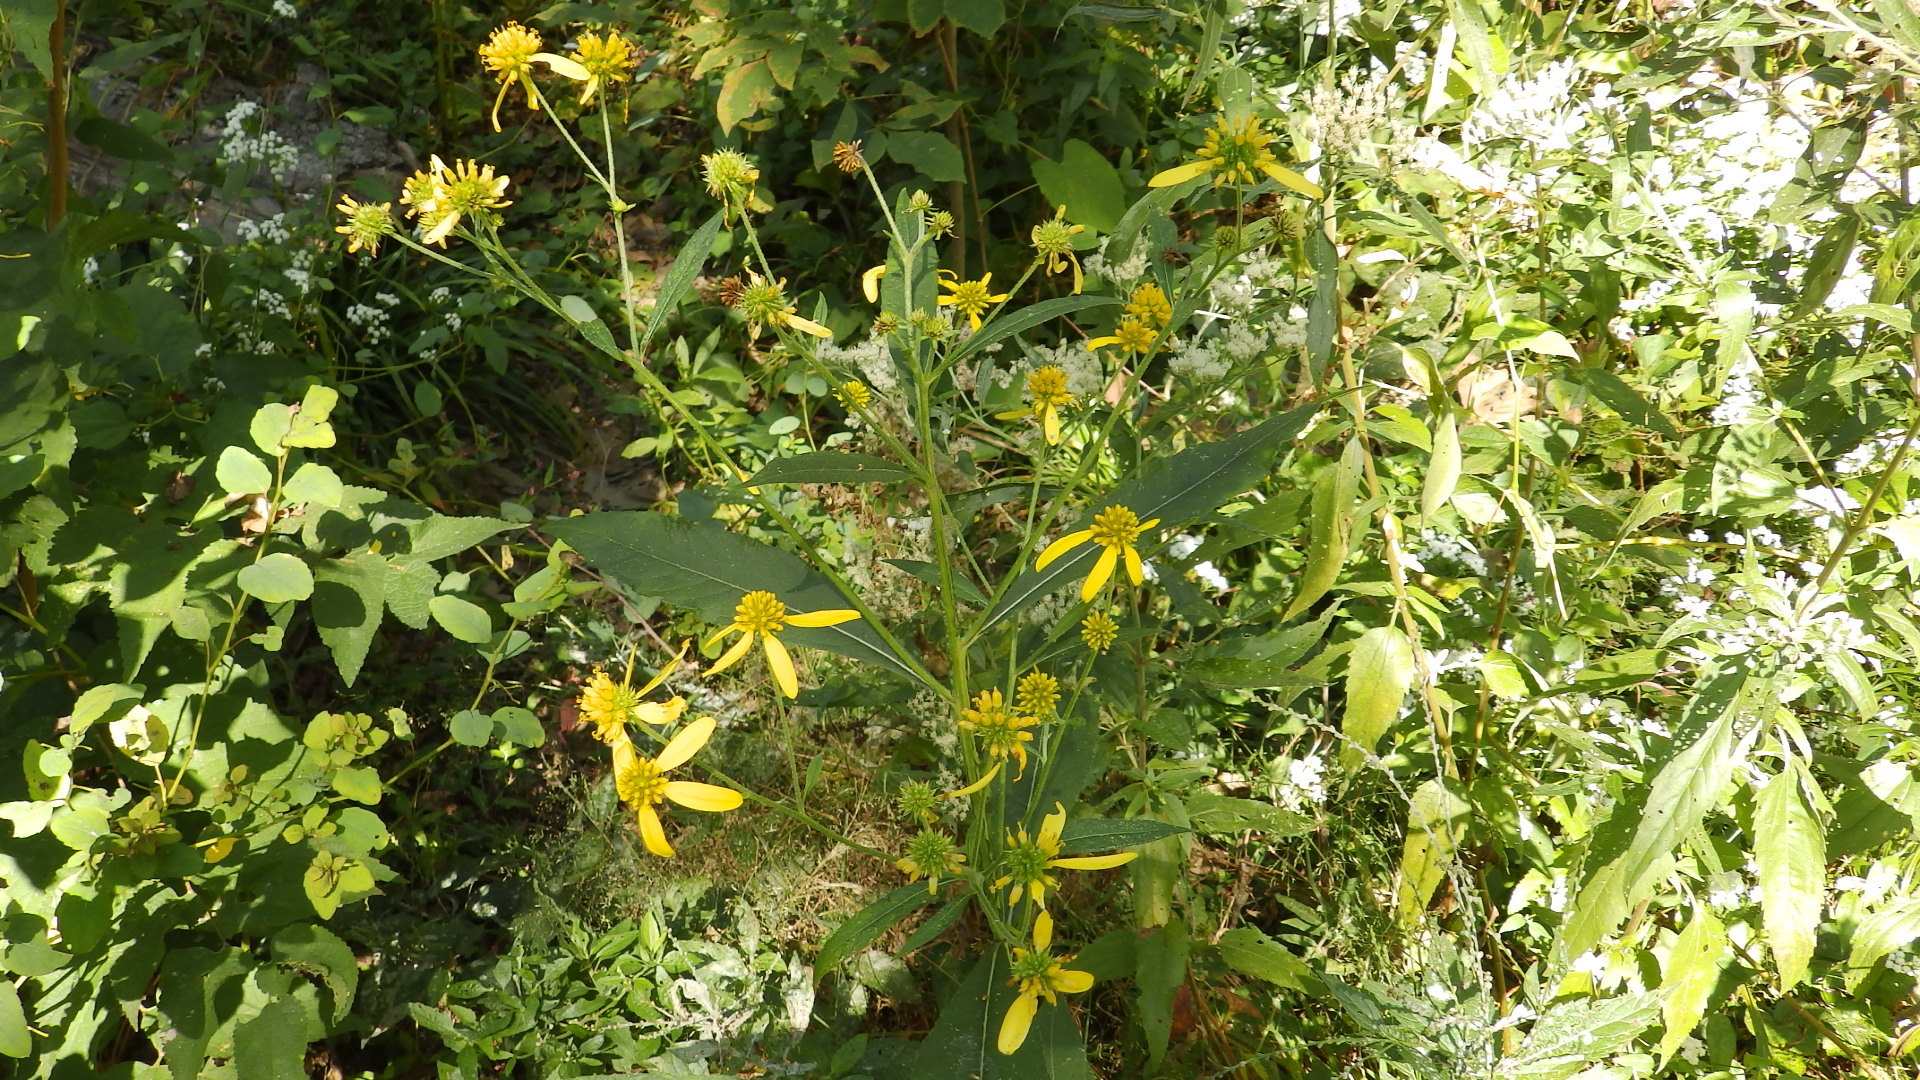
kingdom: Plantae
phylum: Tracheophyta
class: Magnoliopsida
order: Asterales
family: Asteraceae
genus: Verbesina
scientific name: Verbesina alternifolia
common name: Wingstem
